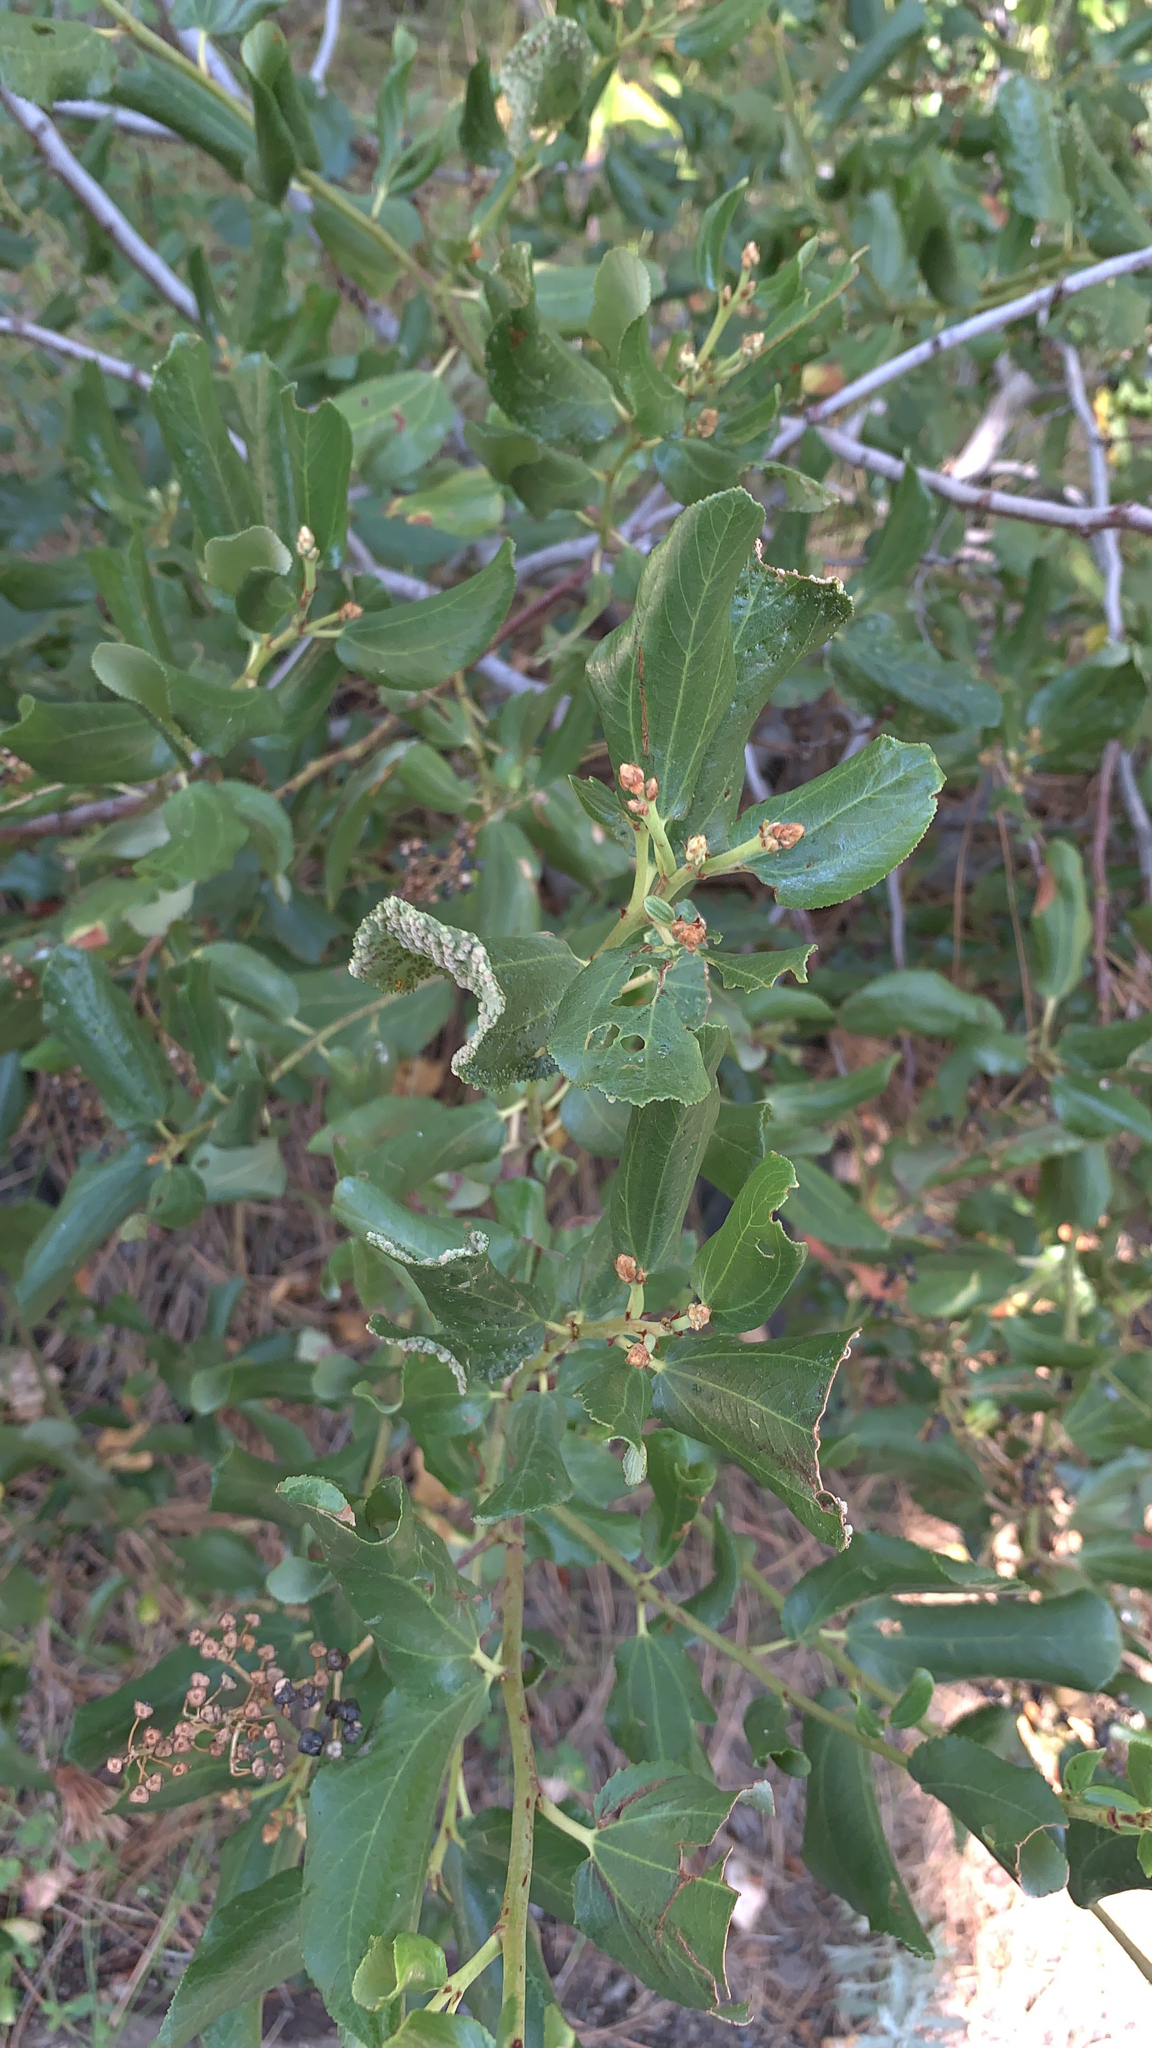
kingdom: Plantae
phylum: Tracheophyta
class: Magnoliopsida
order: Rosales
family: Rhamnaceae
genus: Ceanothus
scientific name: Ceanothus velutinus
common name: Snowbrush
